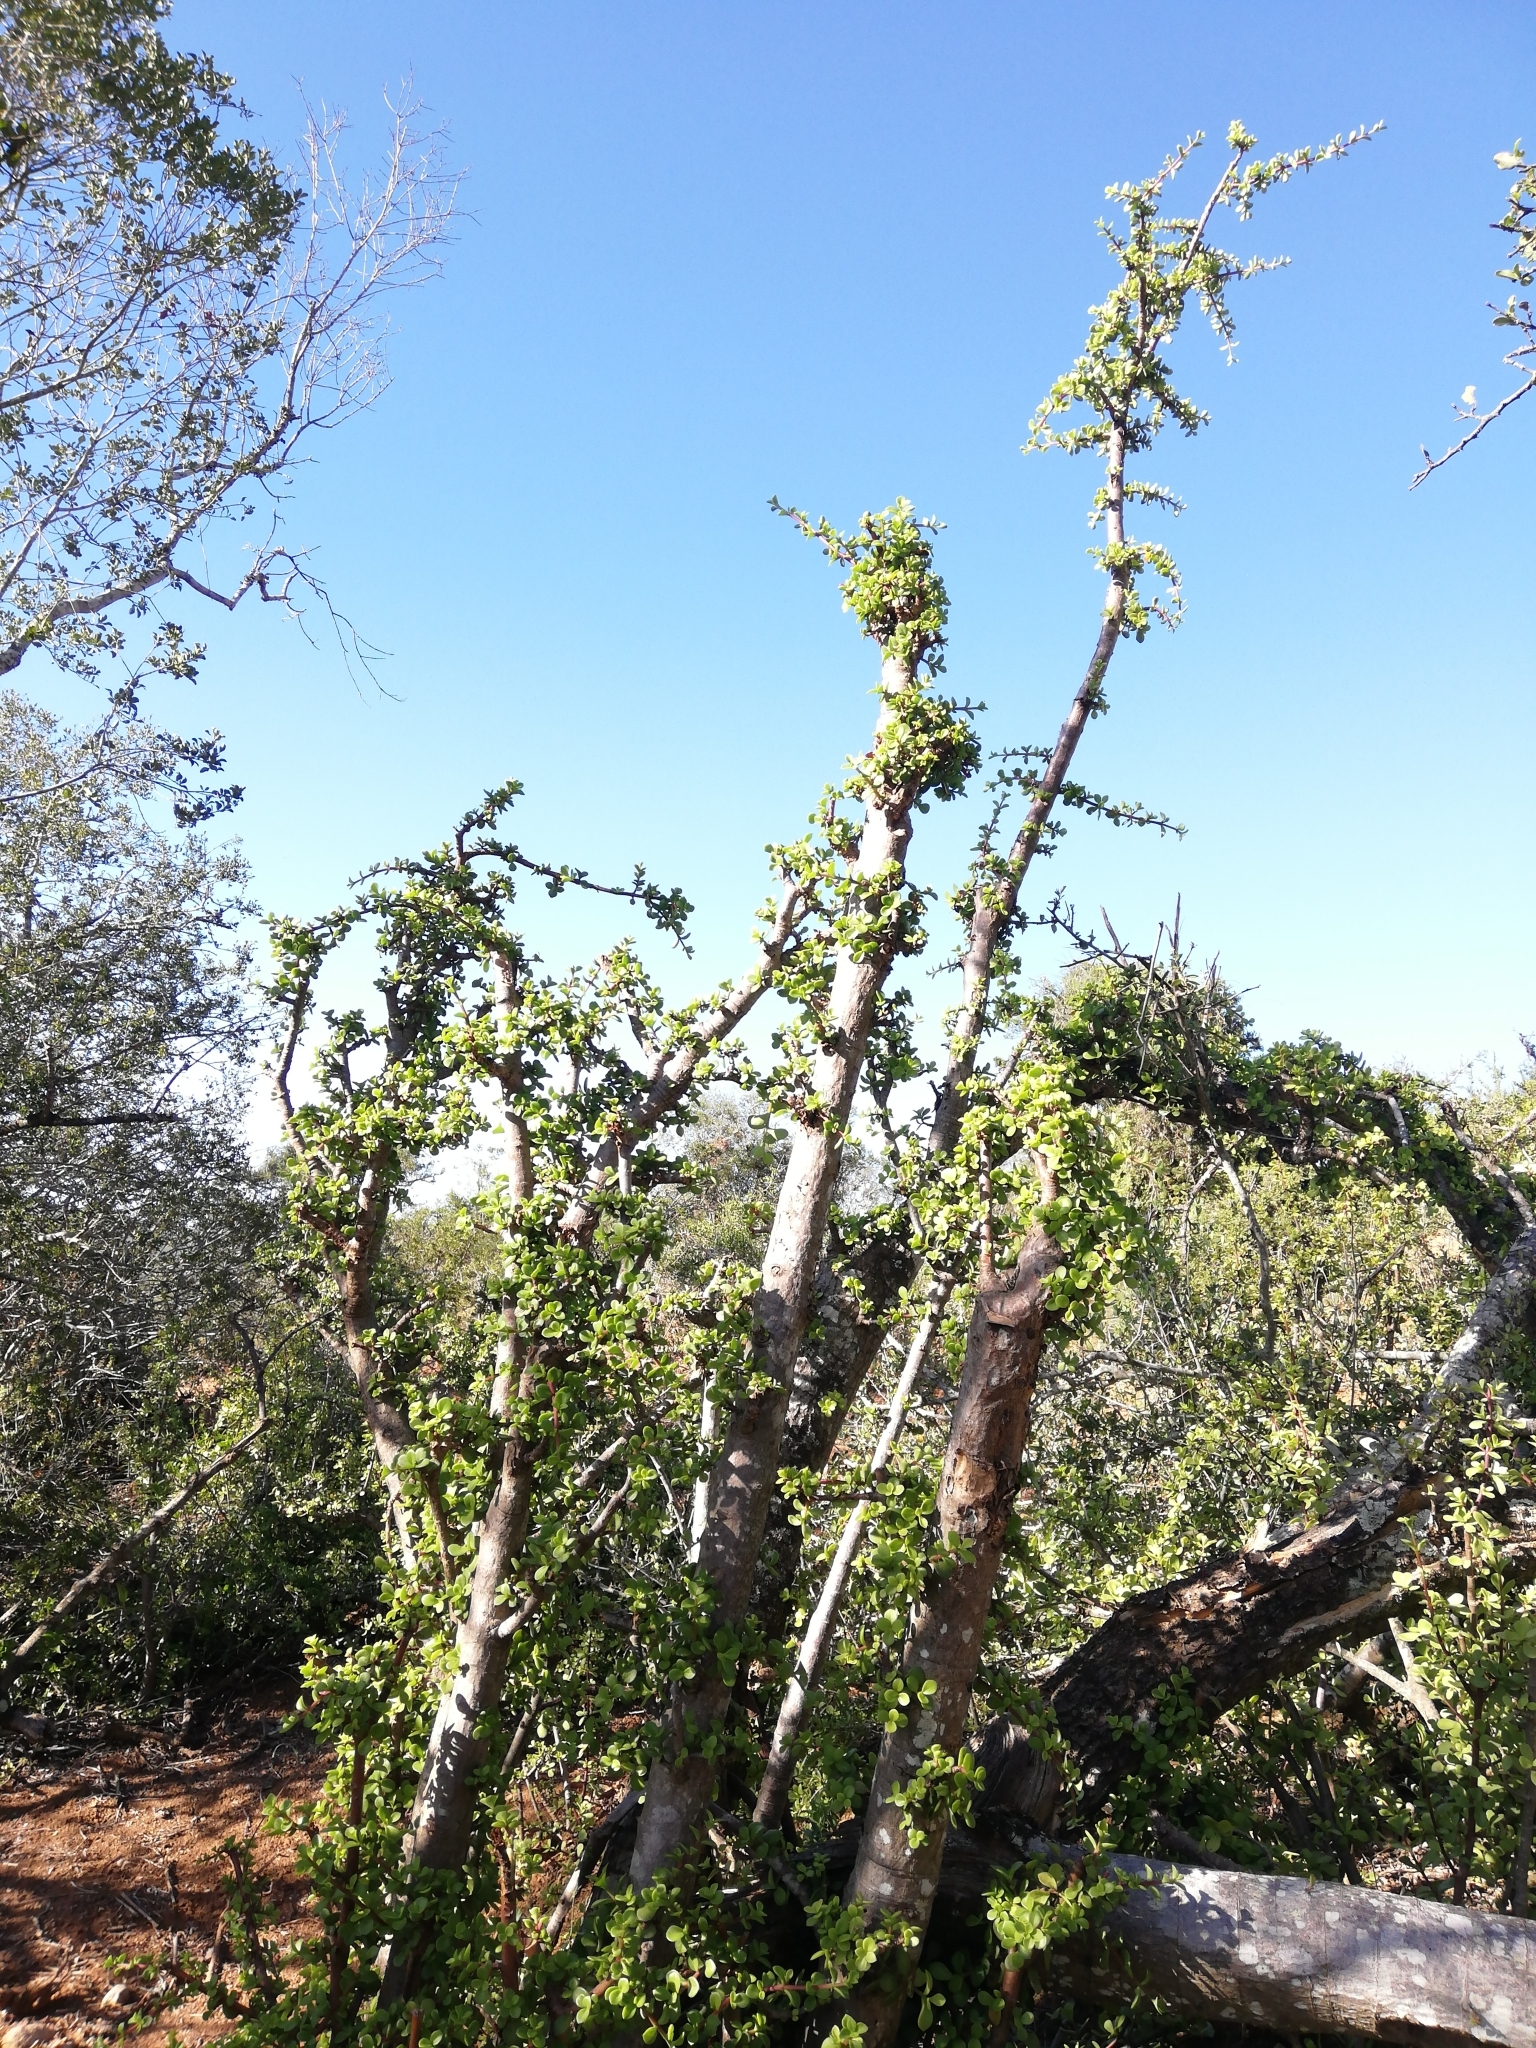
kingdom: Plantae
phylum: Tracheophyta
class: Magnoliopsida
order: Caryophyllales
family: Didiereaceae
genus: Portulacaria
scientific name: Portulacaria afra
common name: Elephant-bush
